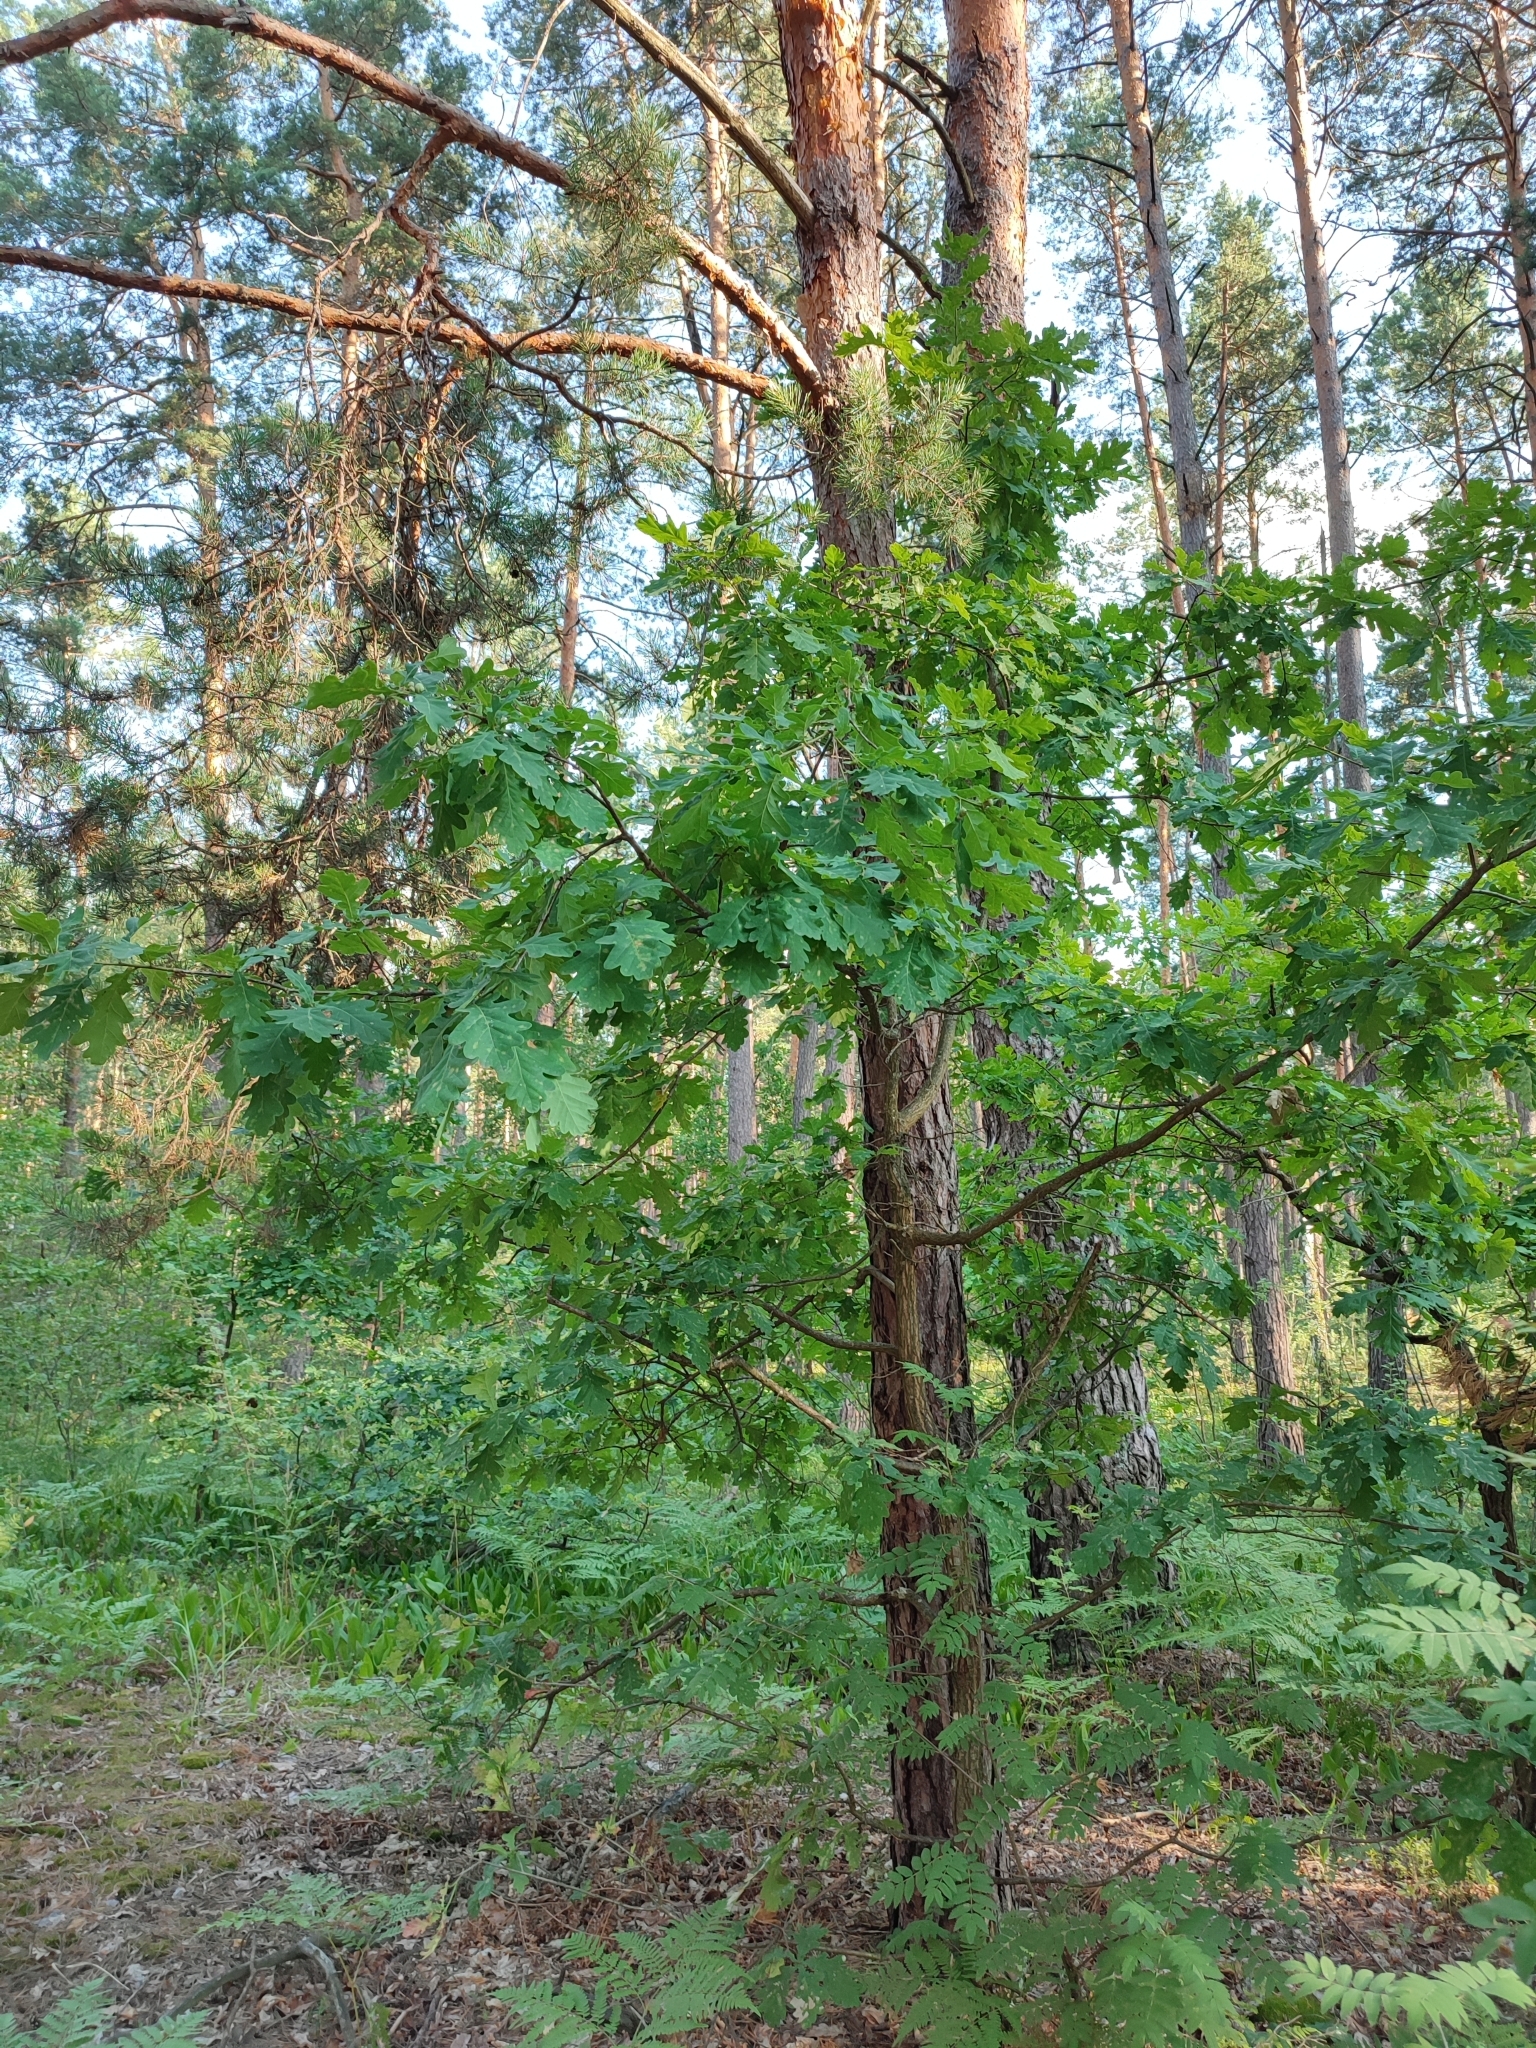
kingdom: Plantae
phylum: Tracheophyta
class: Magnoliopsida
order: Fagales
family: Fagaceae
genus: Quercus
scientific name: Quercus robur
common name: Pedunculate oak
